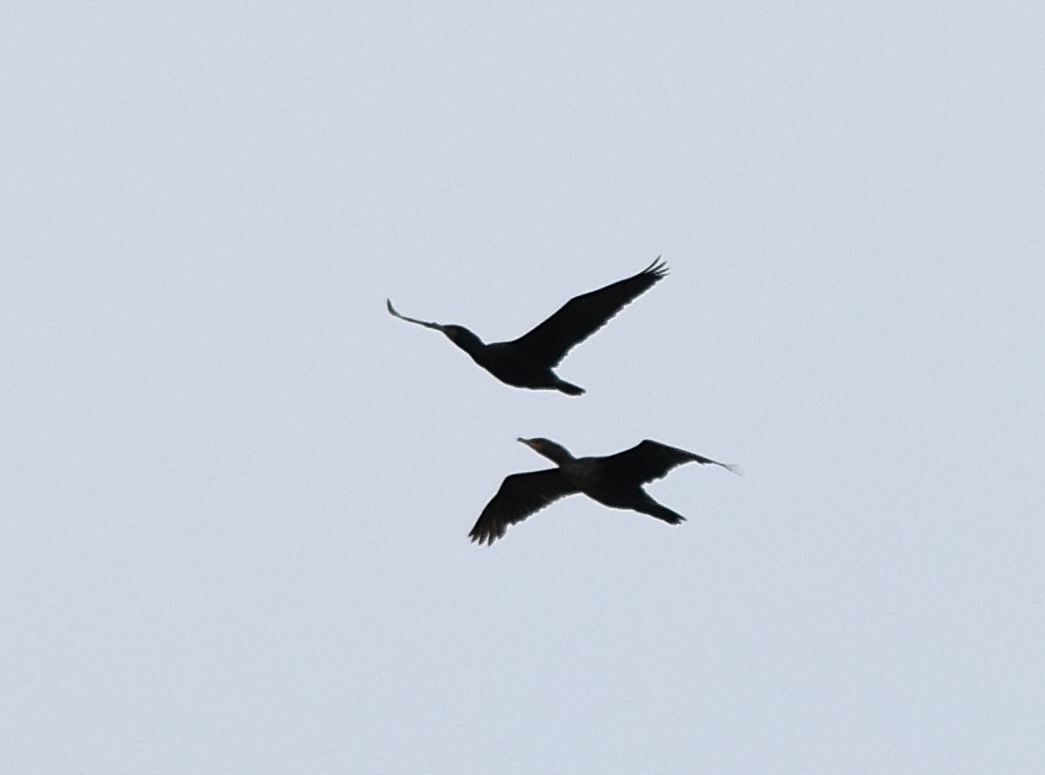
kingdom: Animalia
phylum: Chordata
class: Aves
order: Suliformes
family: Phalacrocoracidae
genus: Phalacrocorax
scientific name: Phalacrocorax auritus
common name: Double-crested cormorant
